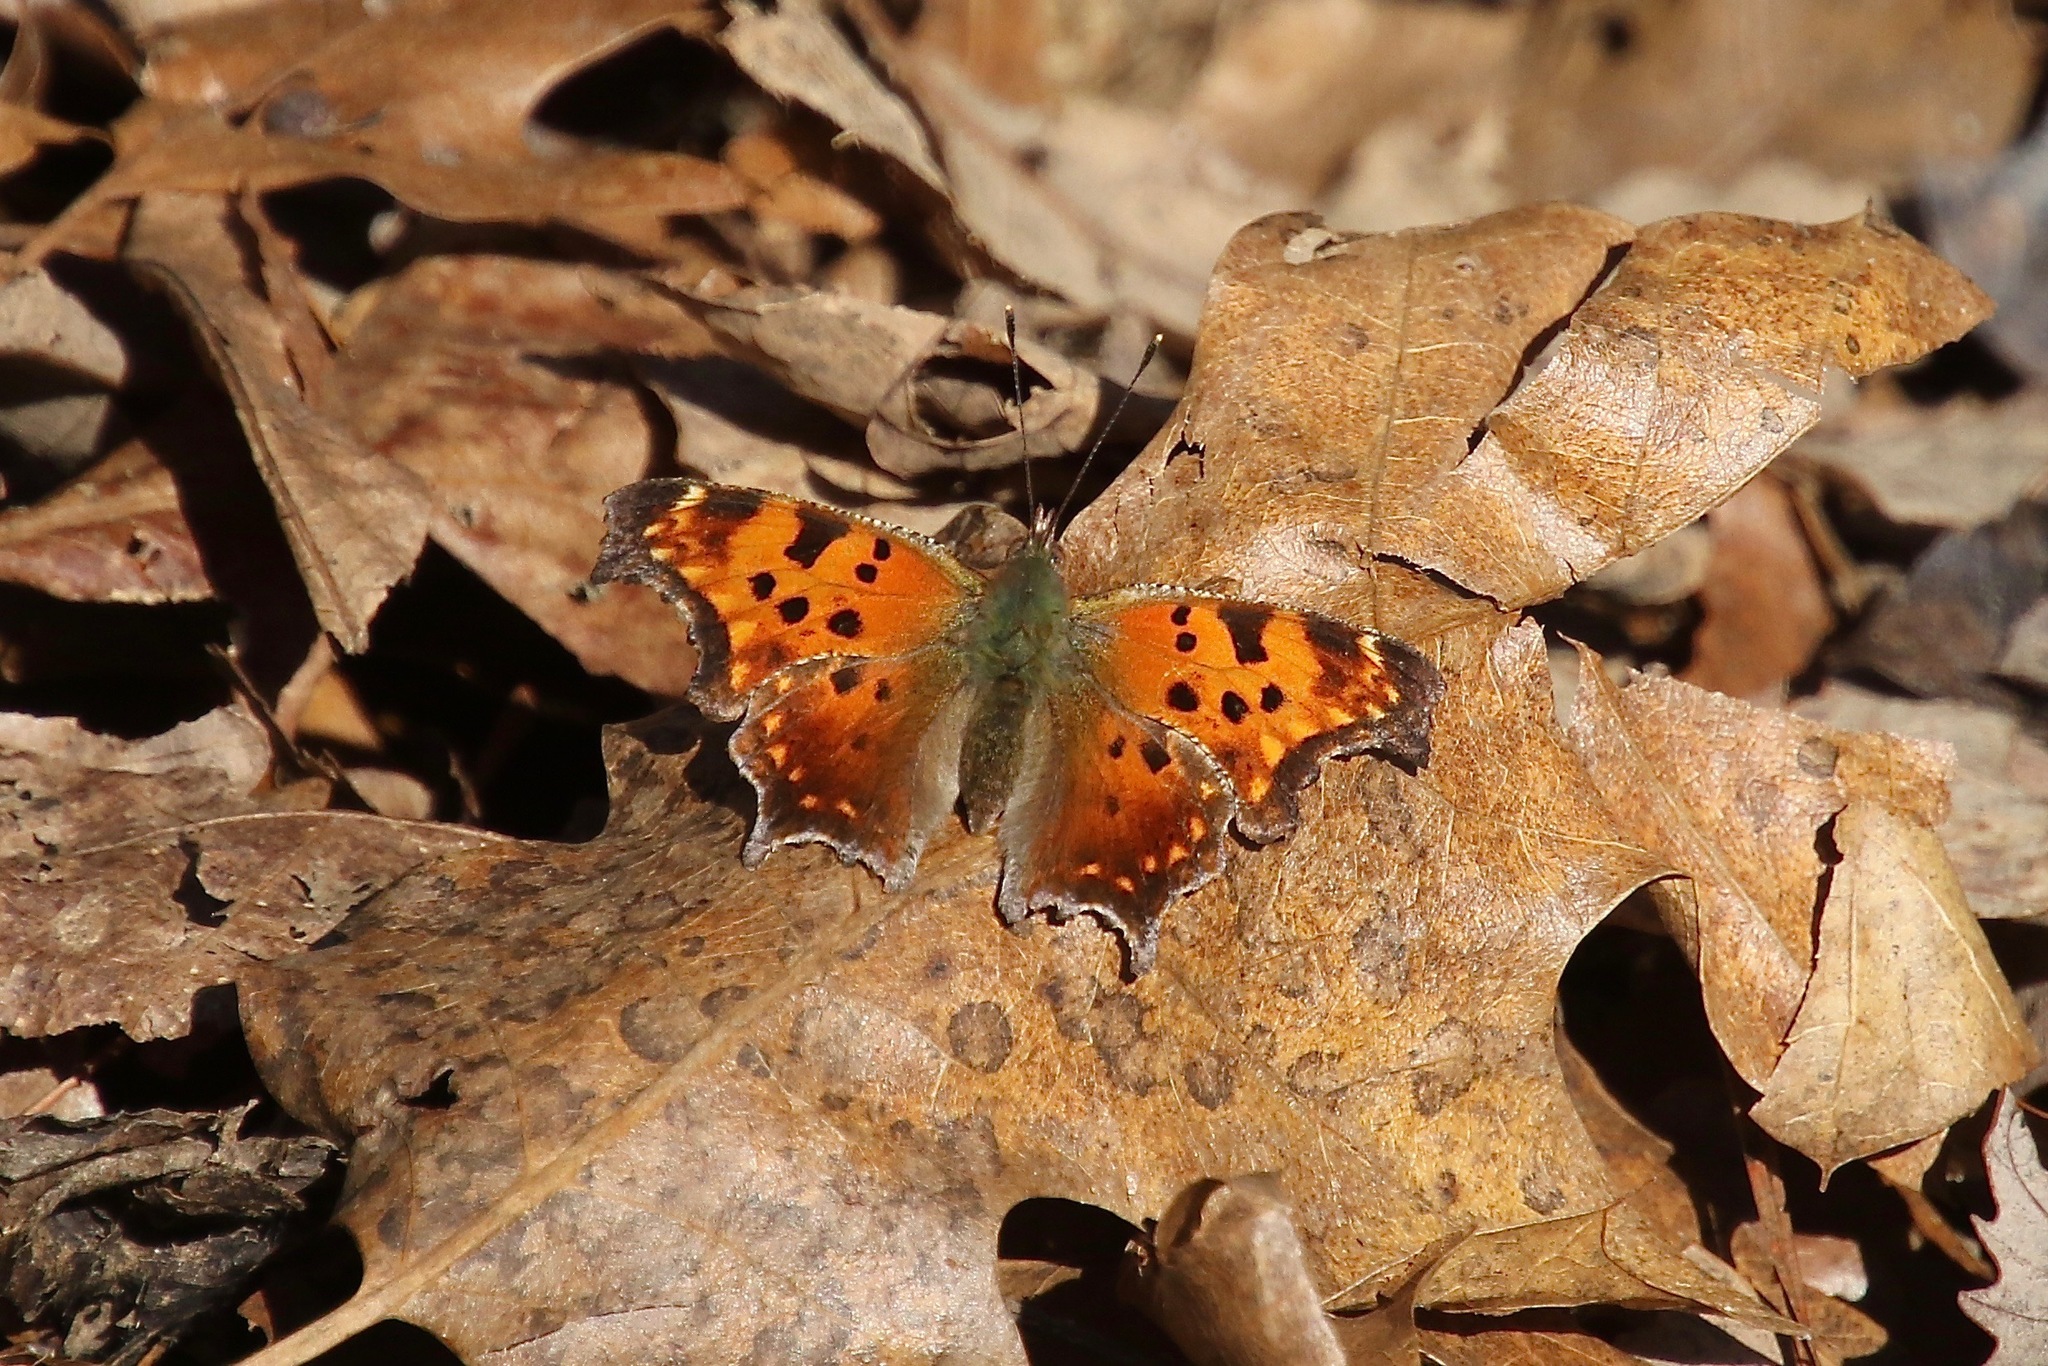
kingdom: Animalia
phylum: Arthropoda
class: Insecta
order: Lepidoptera
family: Nymphalidae
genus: Polygonia
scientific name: Polygonia comma
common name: Eastern comma
